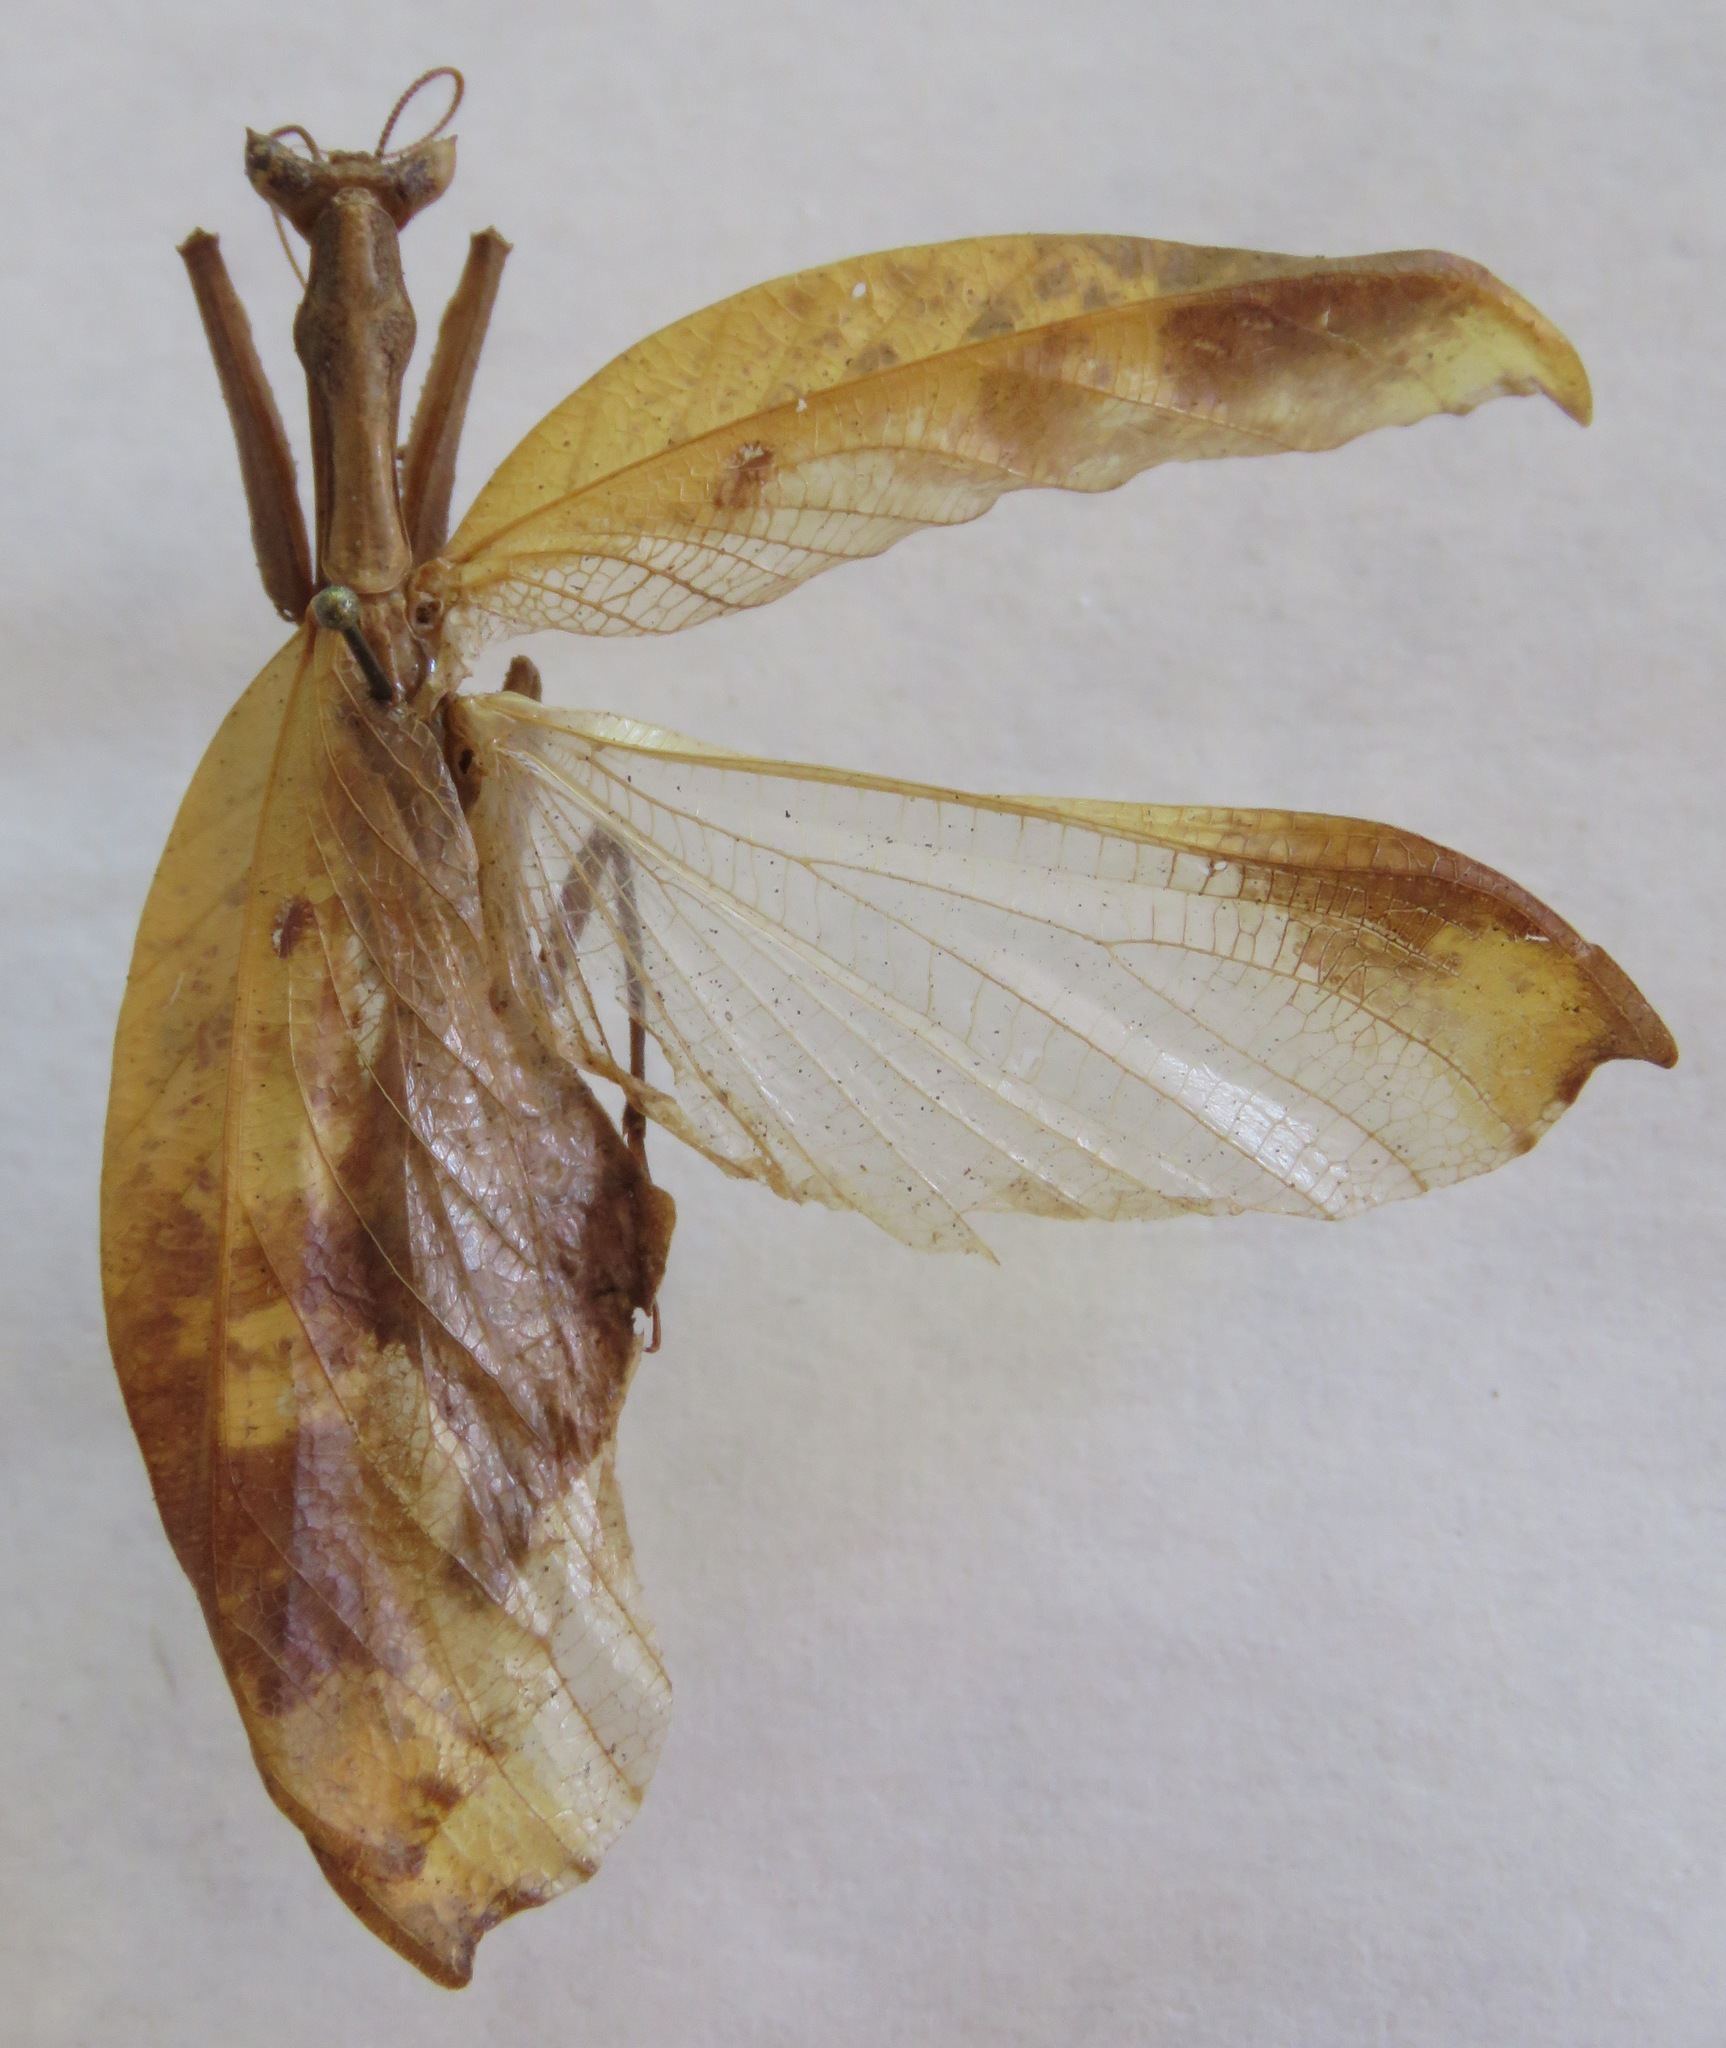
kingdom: Animalia
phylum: Arthropoda
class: Insecta
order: Mantodea
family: Acanthopidae
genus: Metilia
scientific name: Metilia brunnerii
